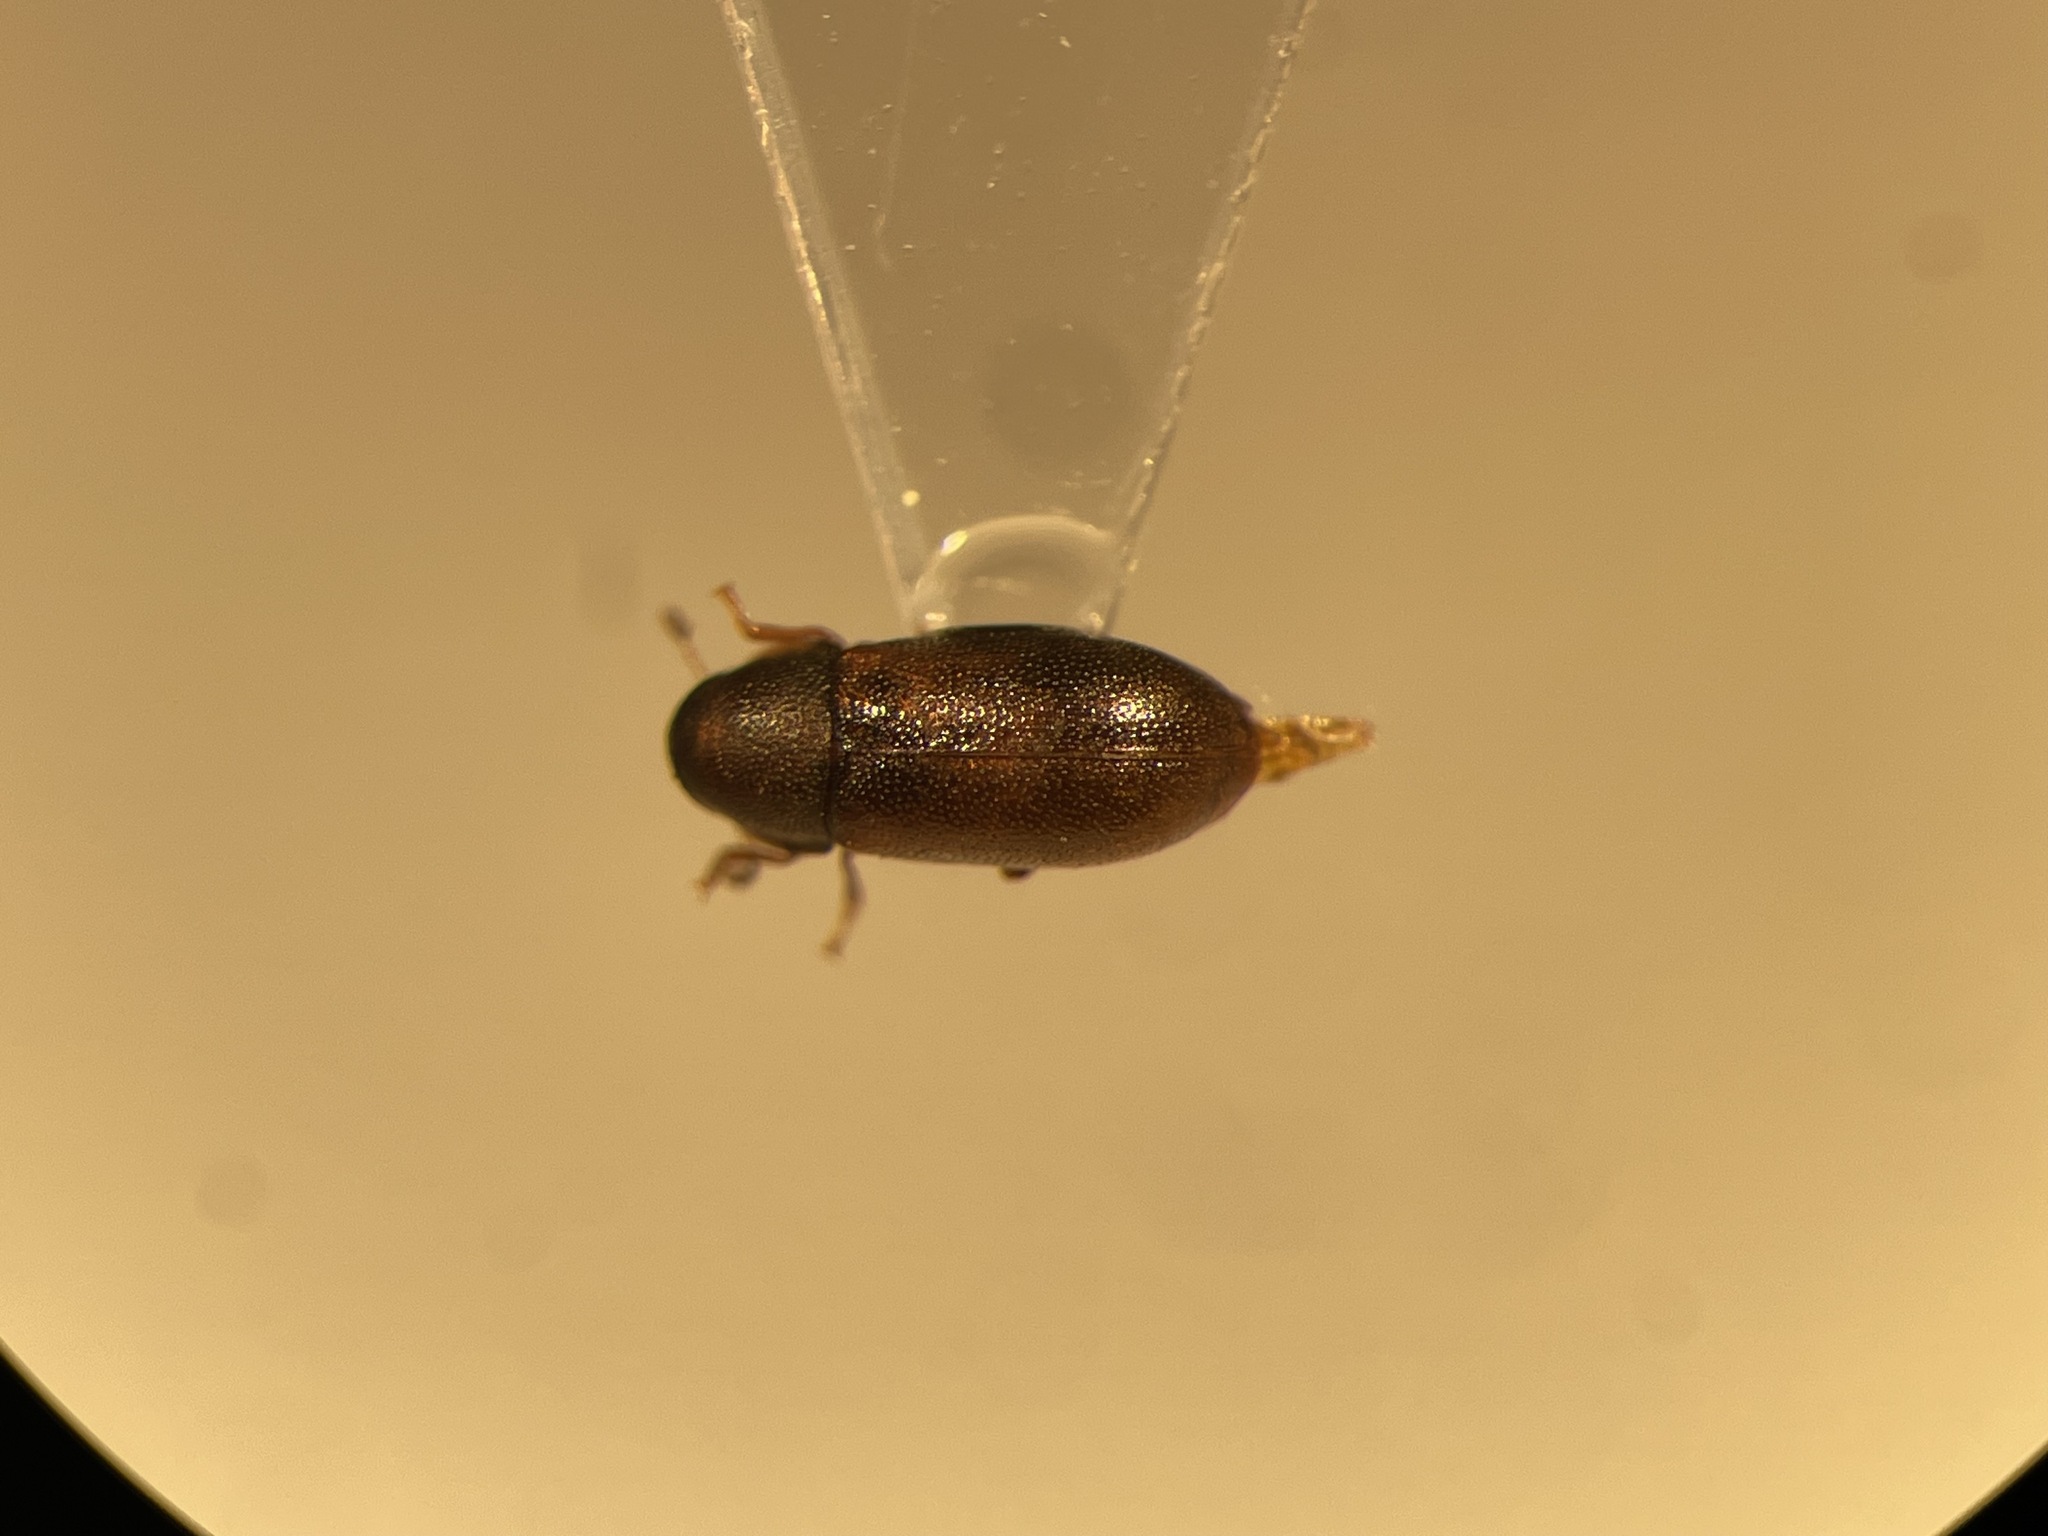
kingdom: Animalia
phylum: Arthropoda
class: Insecta
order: Coleoptera
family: Ciidae
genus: Orthocis
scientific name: Orthocis punctatus
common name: Pitted fungus beetle
